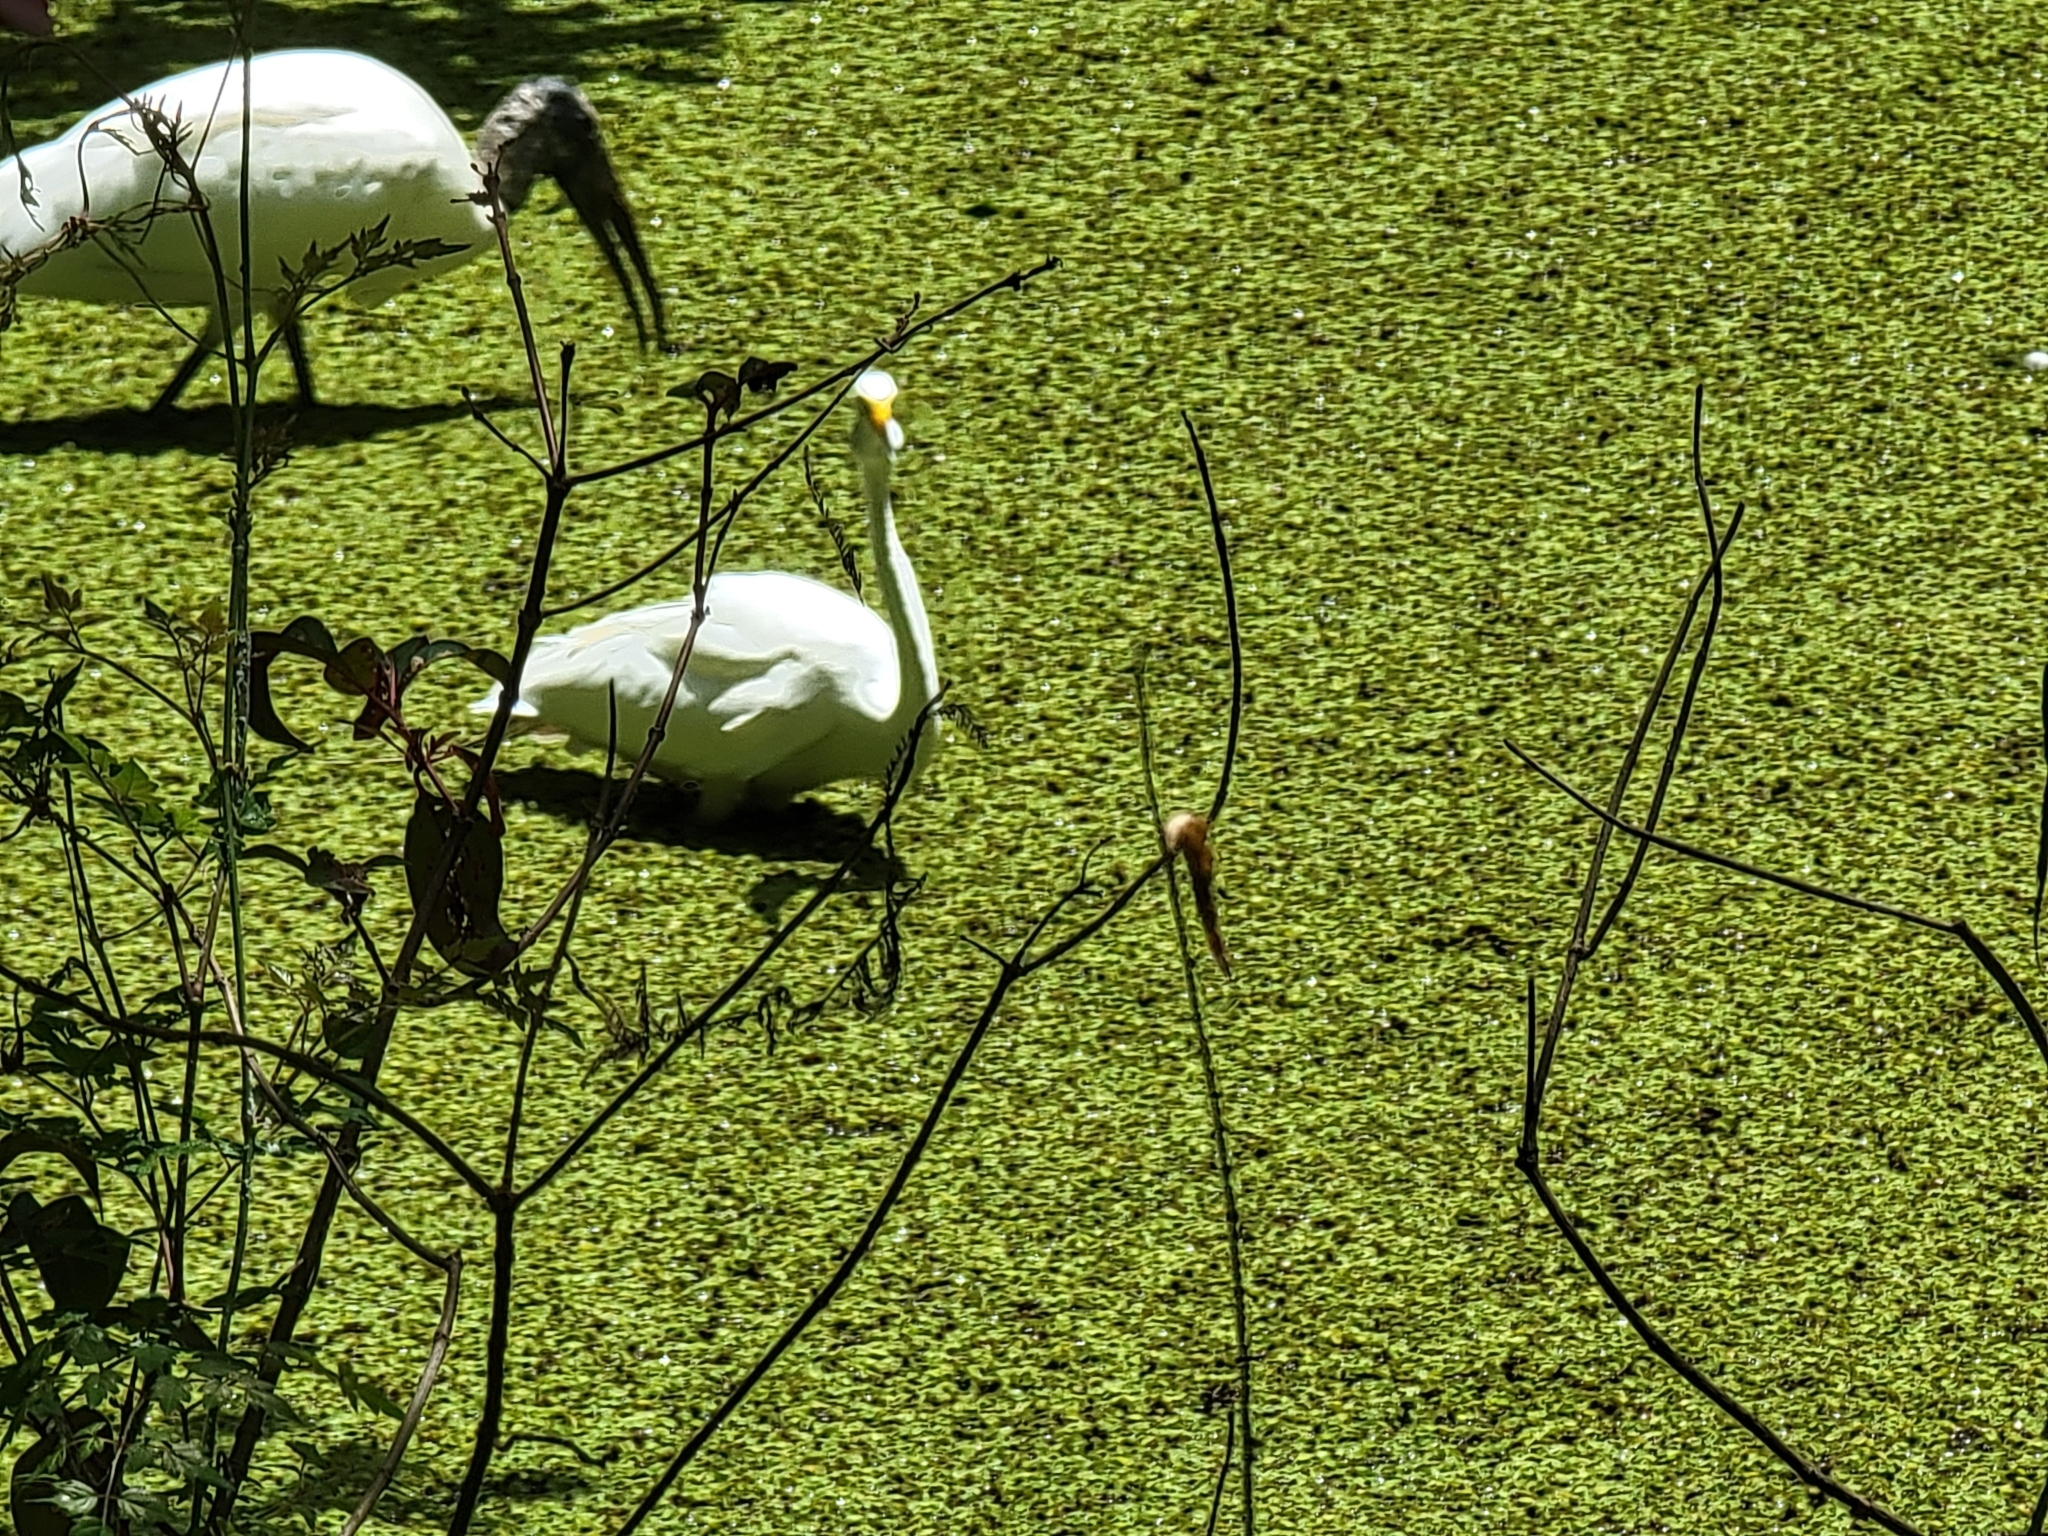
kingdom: Animalia
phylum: Chordata
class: Aves
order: Pelecaniformes
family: Ardeidae
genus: Ardea
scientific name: Ardea alba
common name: Great egret
